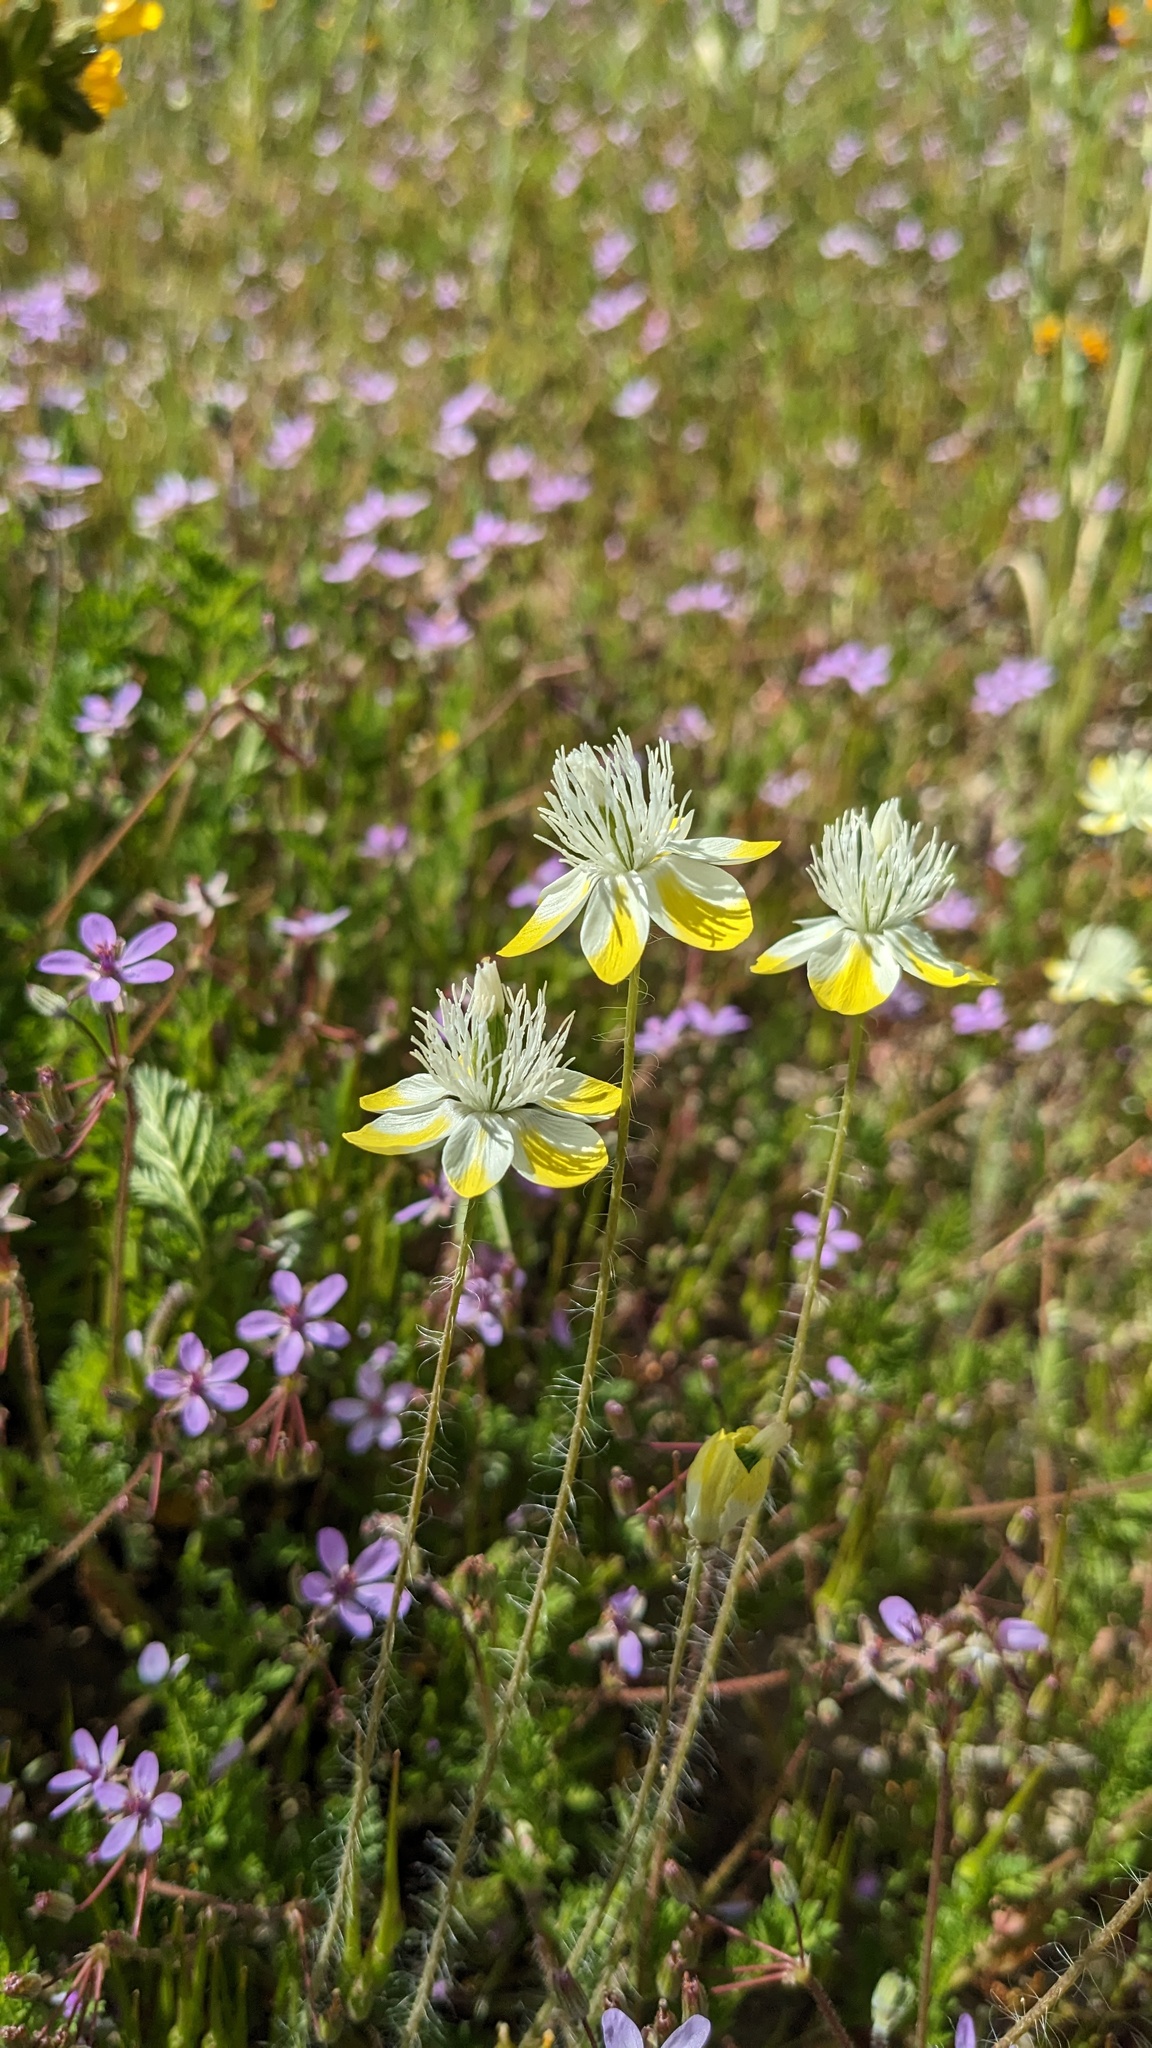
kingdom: Plantae
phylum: Tracheophyta
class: Magnoliopsida
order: Ranunculales
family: Papaveraceae
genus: Platystemon
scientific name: Platystemon californicus
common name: Cream-cups
